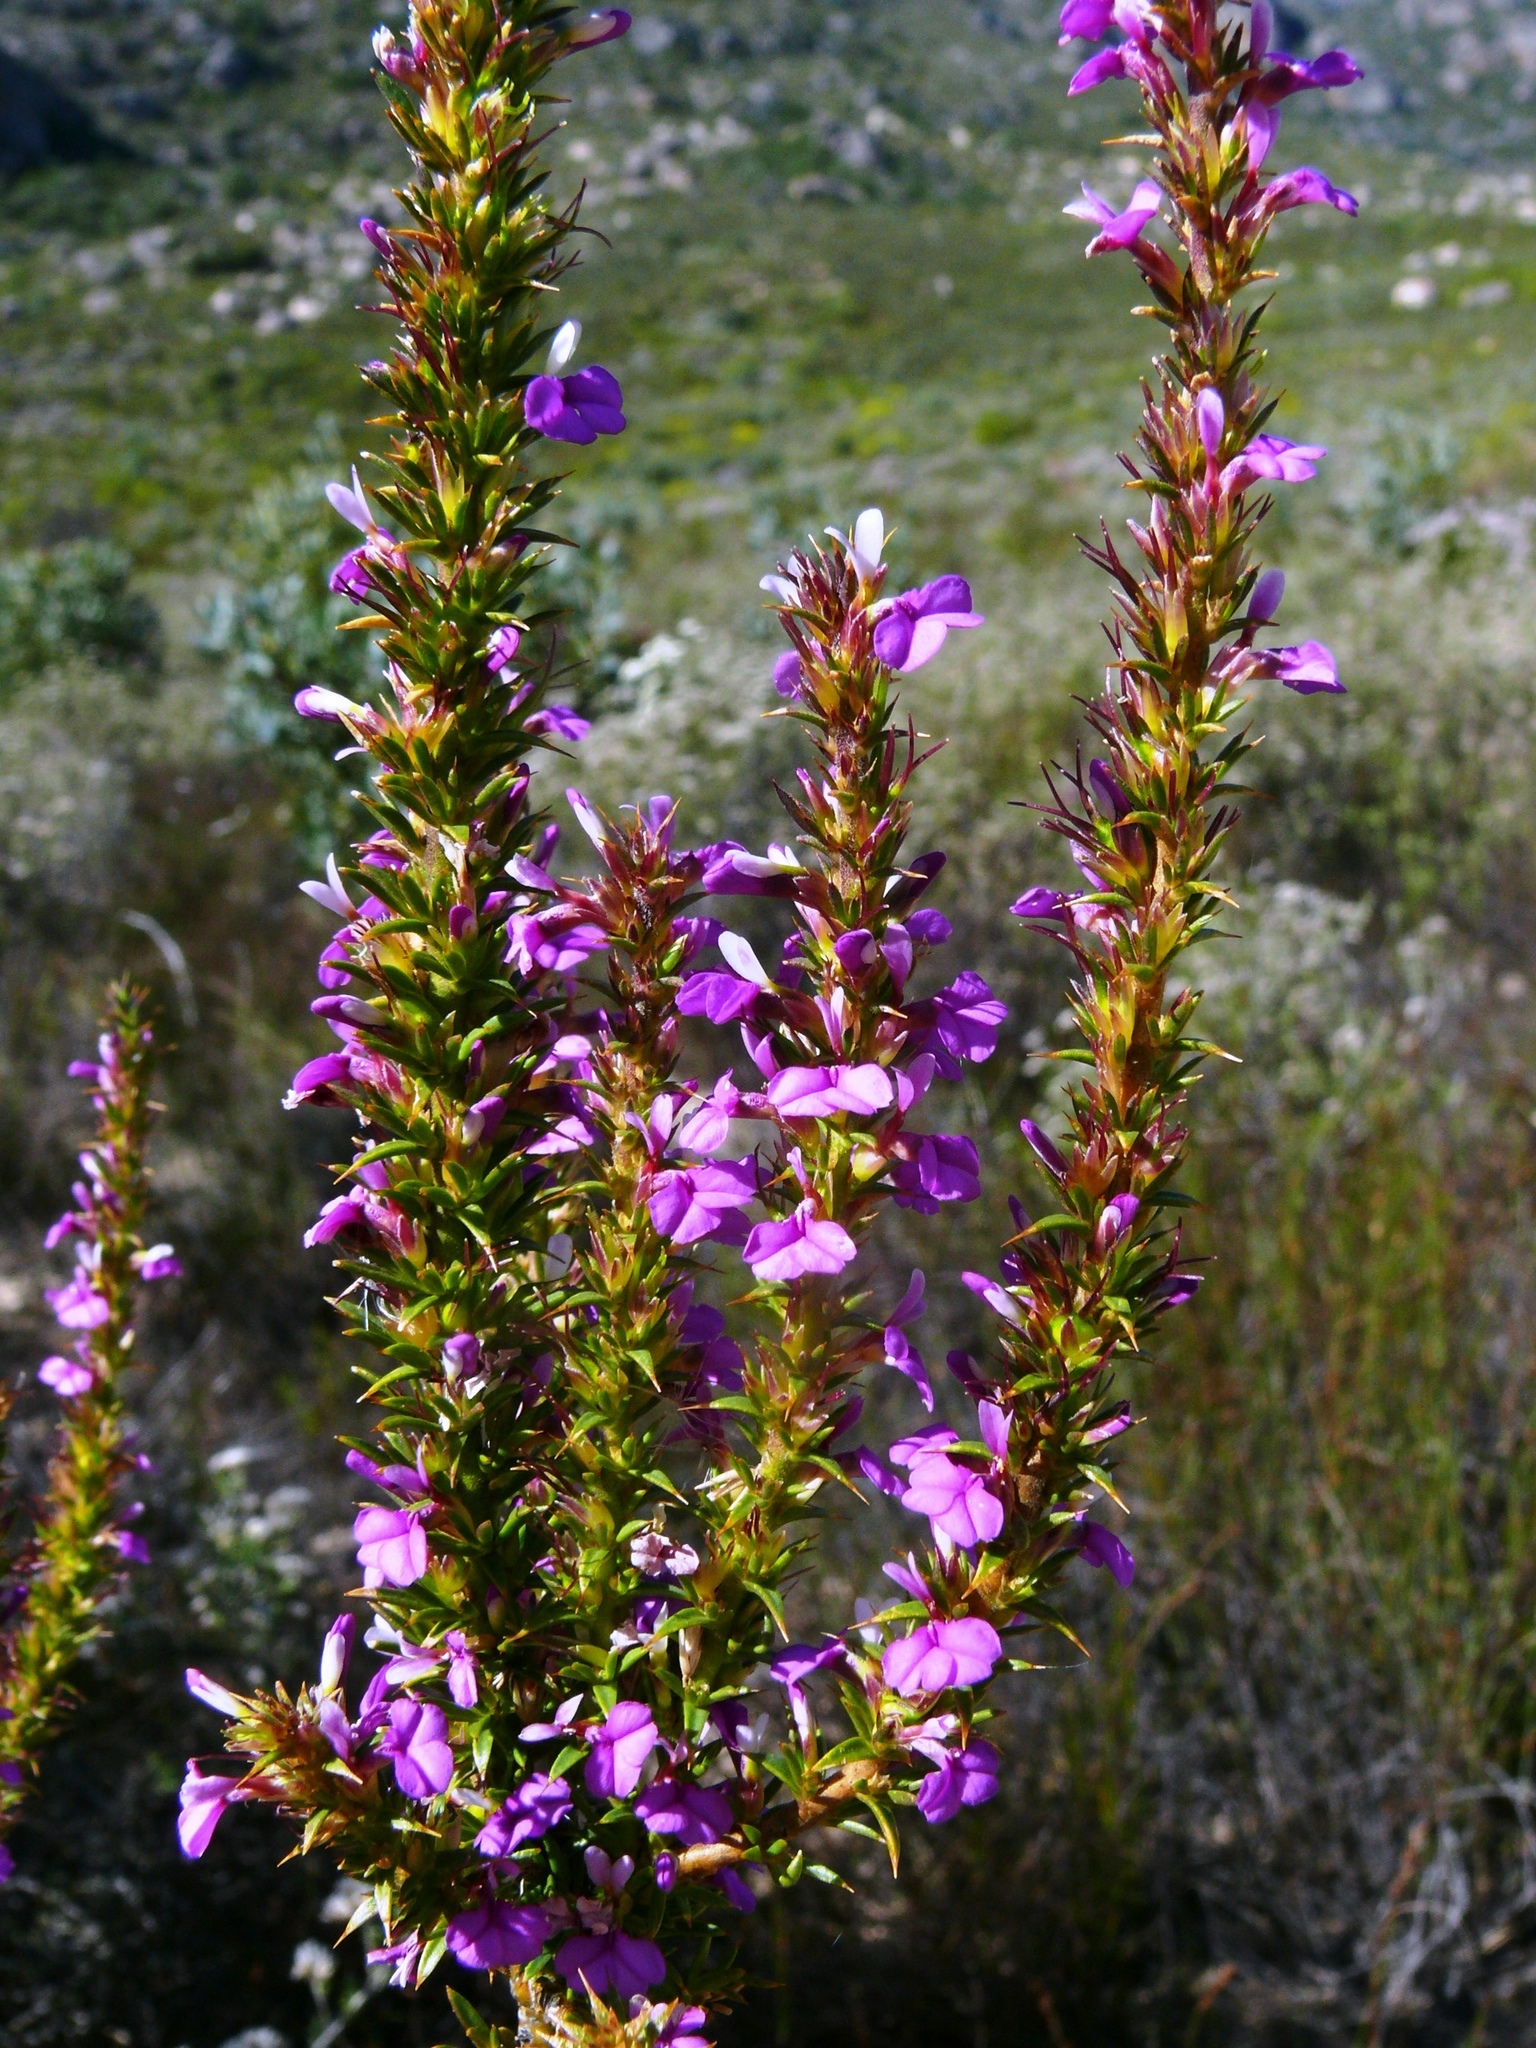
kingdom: Plantae
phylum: Tracheophyta
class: Magnoliopsida
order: Fabales
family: Polygalaceae
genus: Muraltia
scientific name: Muraltia heisteria
